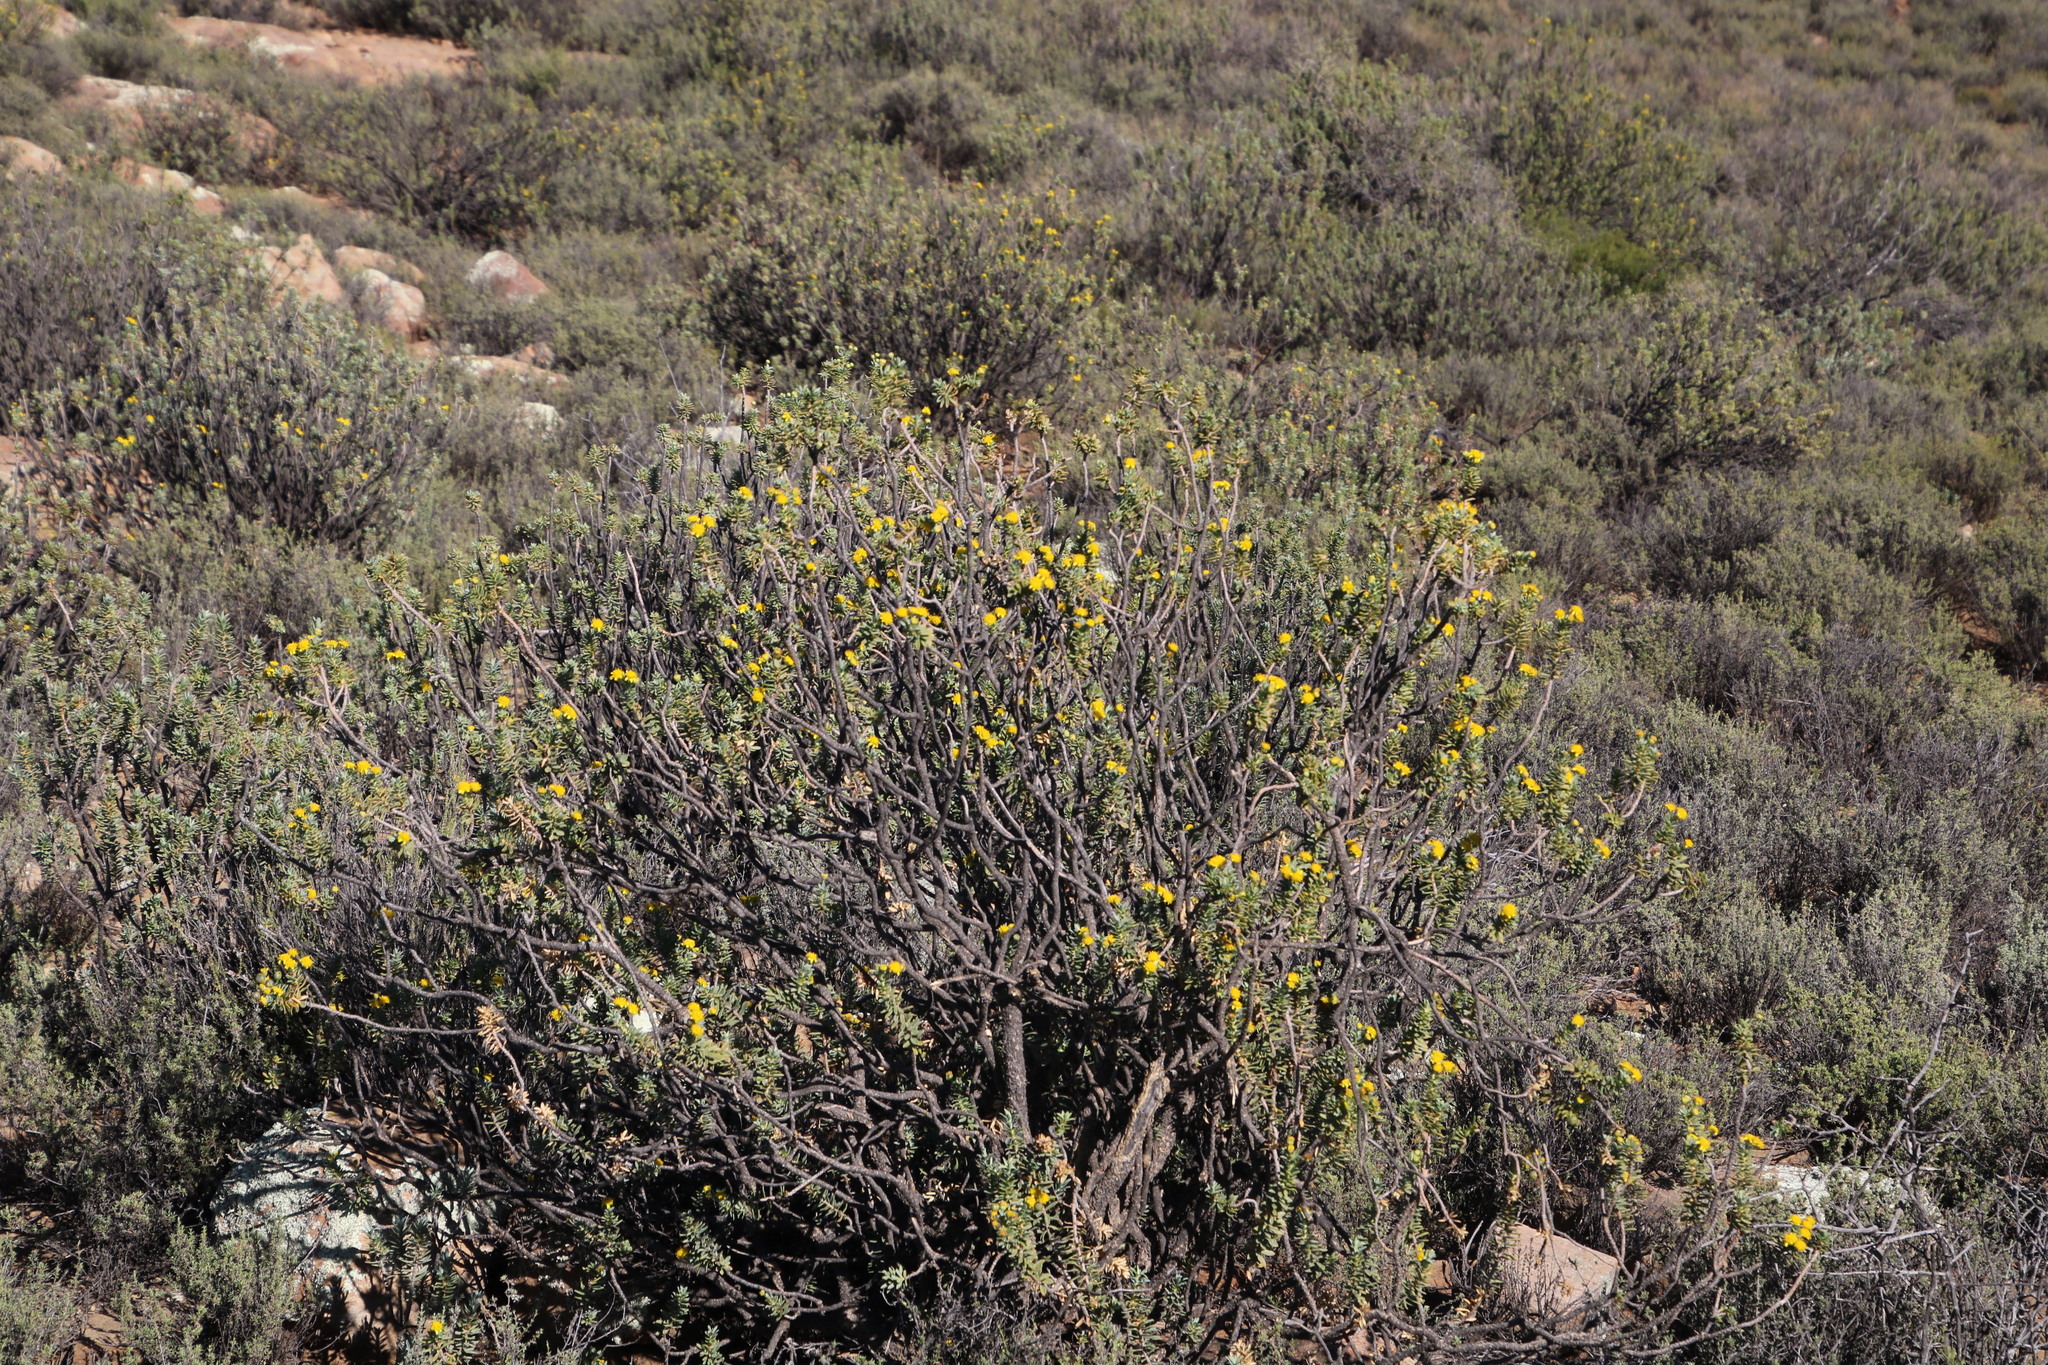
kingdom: Plantae
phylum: Tracheophyta
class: Magnoliopsida
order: Asterales
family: Asteraceae
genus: Euryops
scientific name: Euryops lateriflorus
